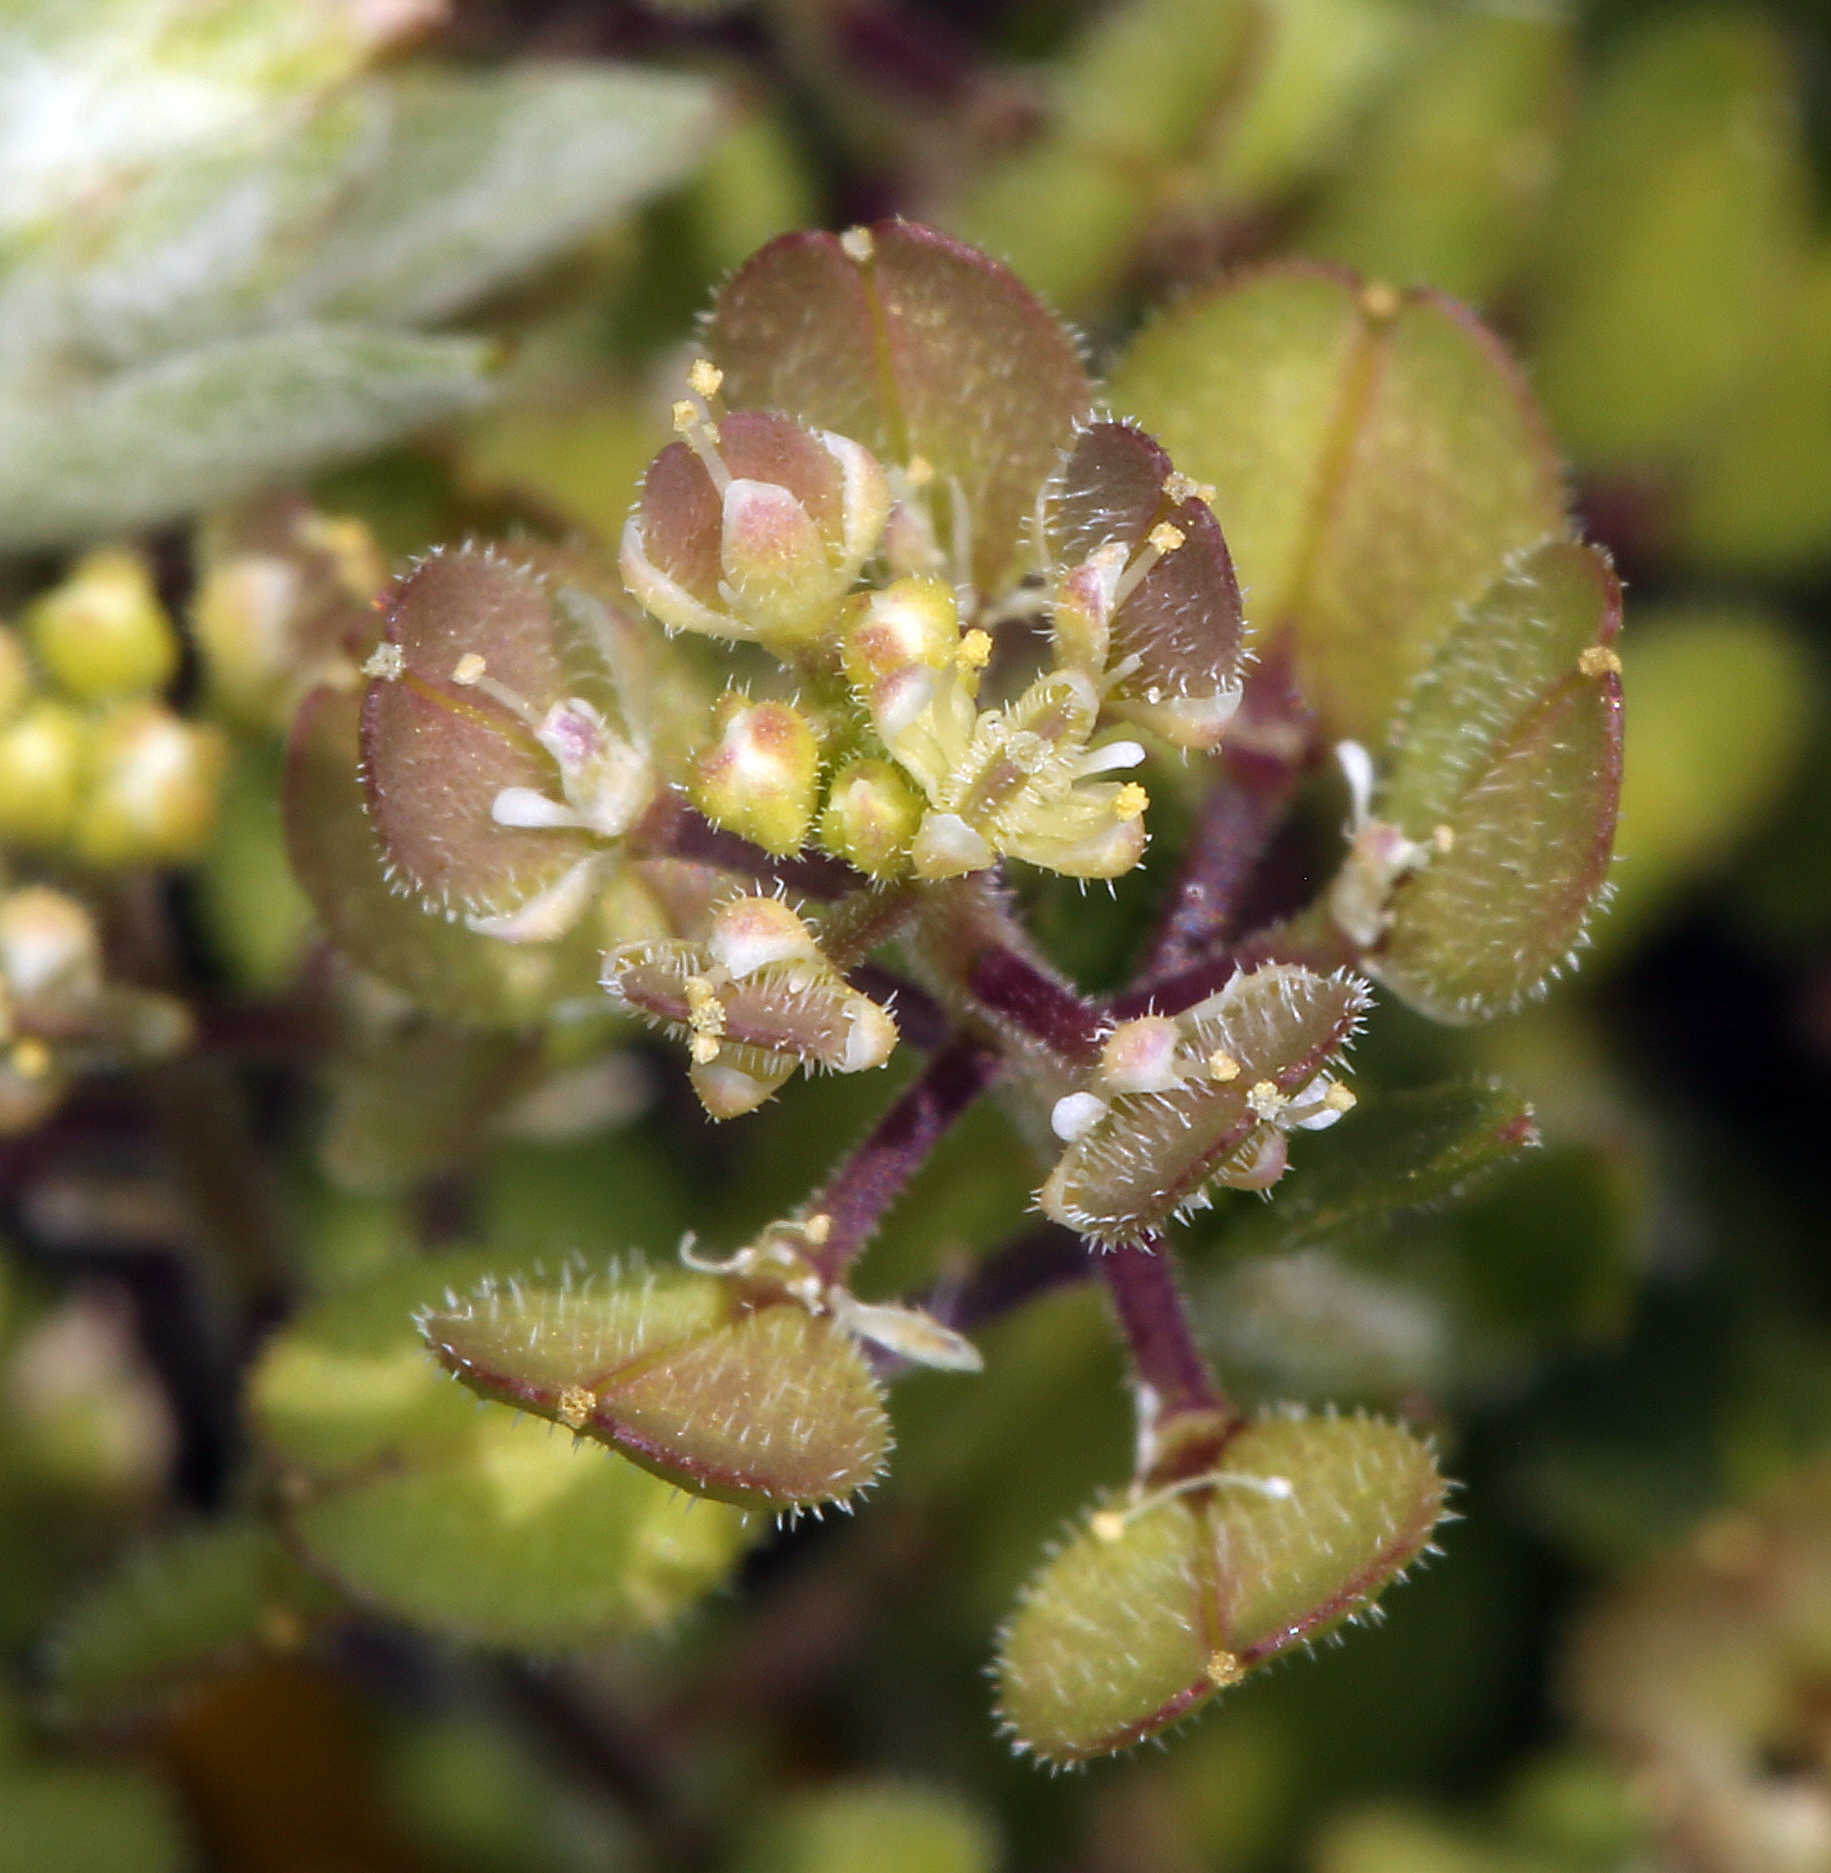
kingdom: Plantae
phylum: Tracheophyta
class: Magnoliopsida
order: Brassicales
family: Brassicaceae
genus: Lepidium
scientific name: Lepidium lasiocarpum
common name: Hairy-pod pepperwort
